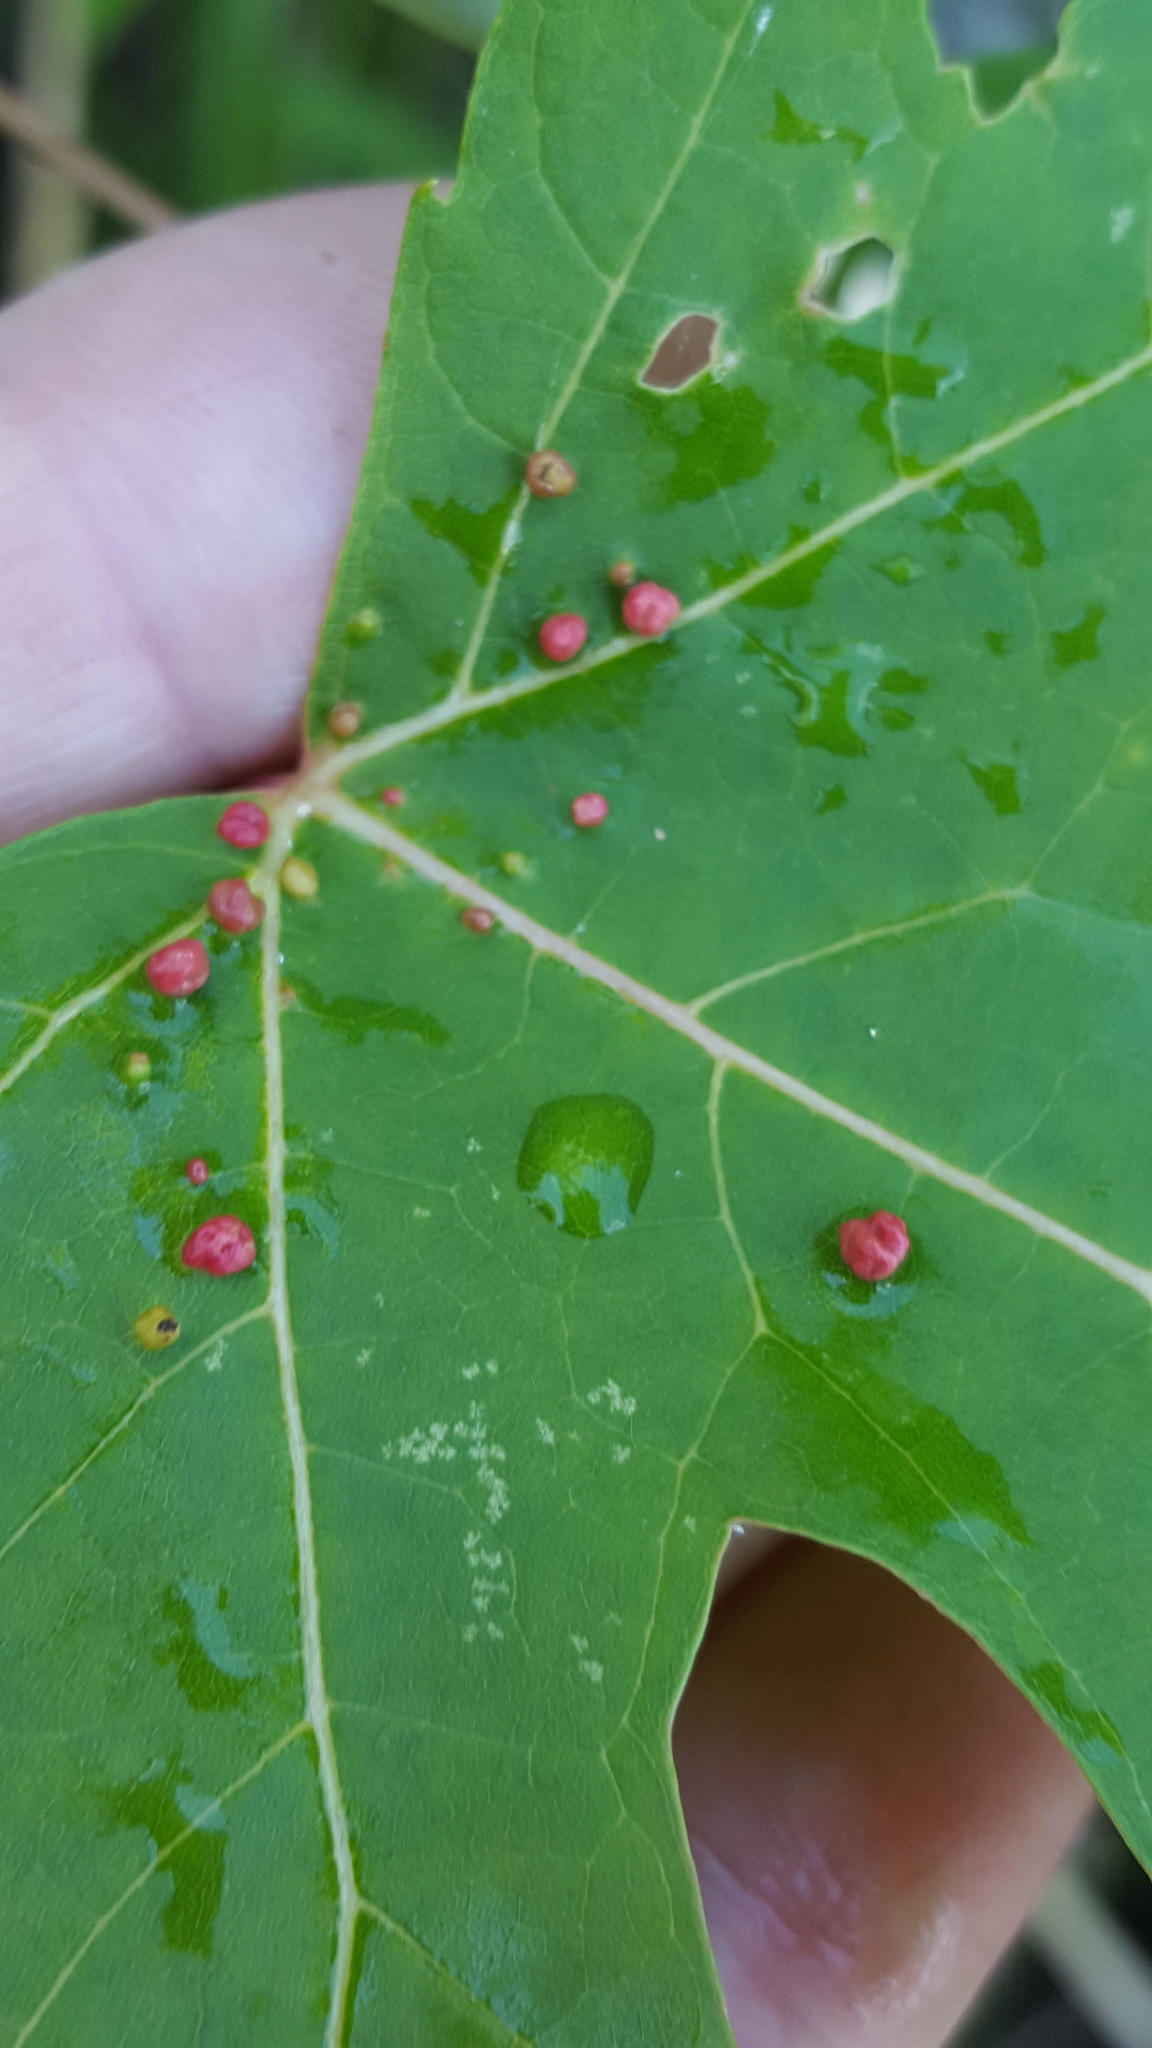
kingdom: Animalia
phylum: Arthropoda
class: Arachnida
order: Trombidiformes
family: Eriophyidae
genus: Vasates
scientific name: Vasates quadripedes
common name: Maple bladder gall mite
